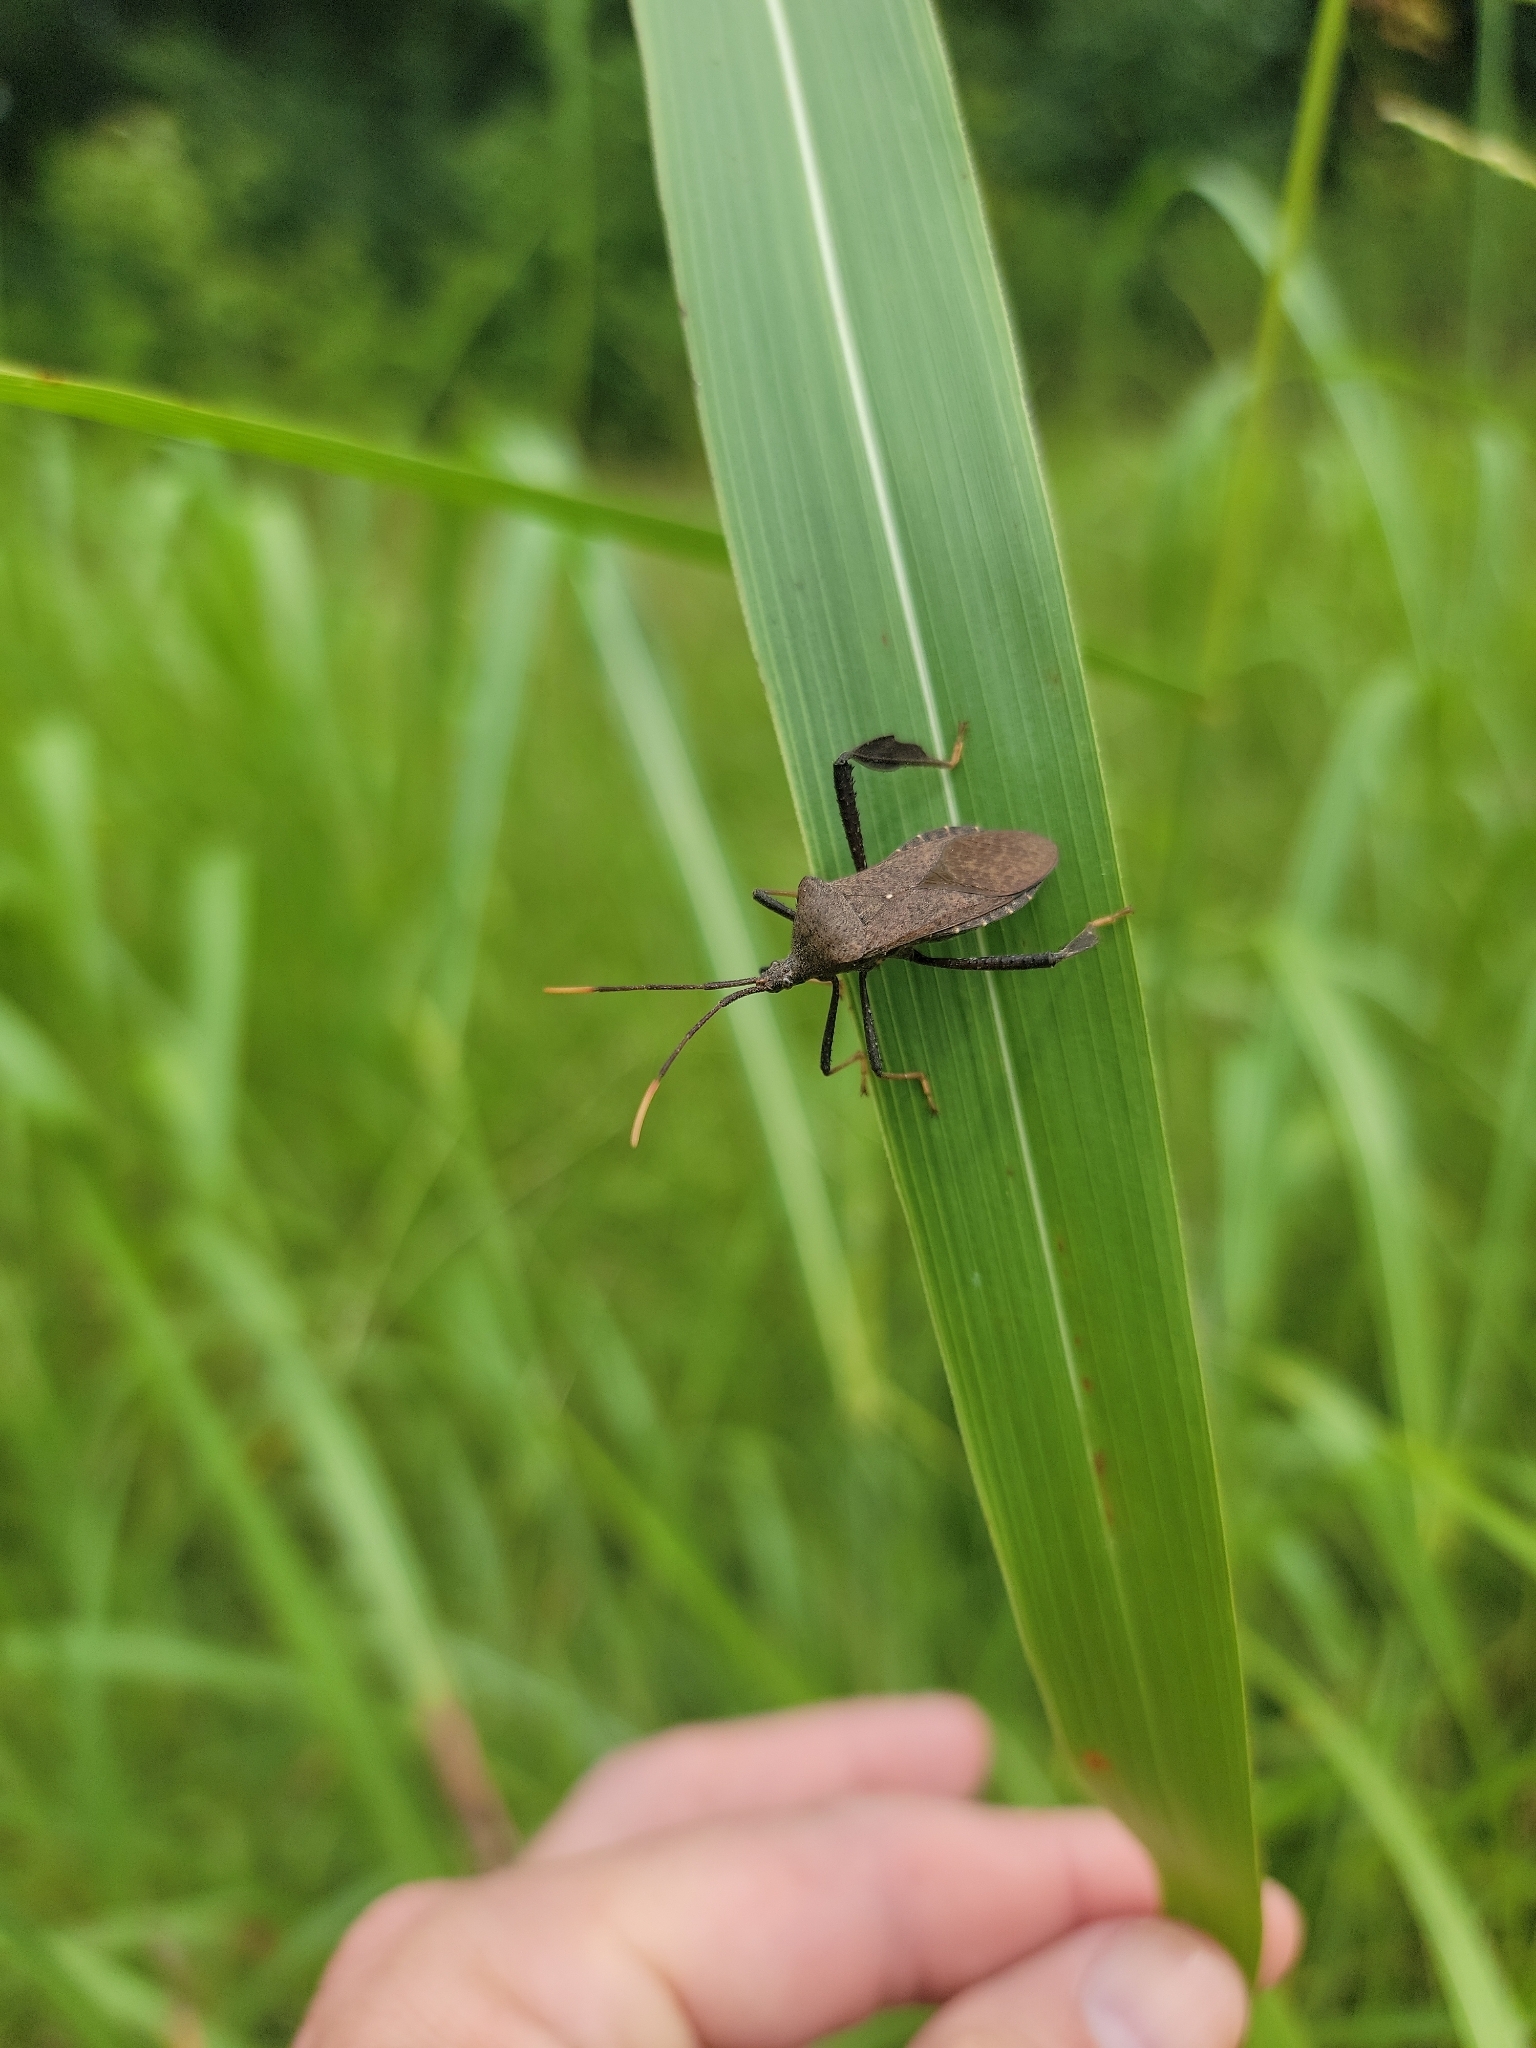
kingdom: Animalia
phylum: Arthropoda
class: Insecta
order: Hemiptera
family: Coreidae
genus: Acanthocephala
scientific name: Acanthocephala terminalis
